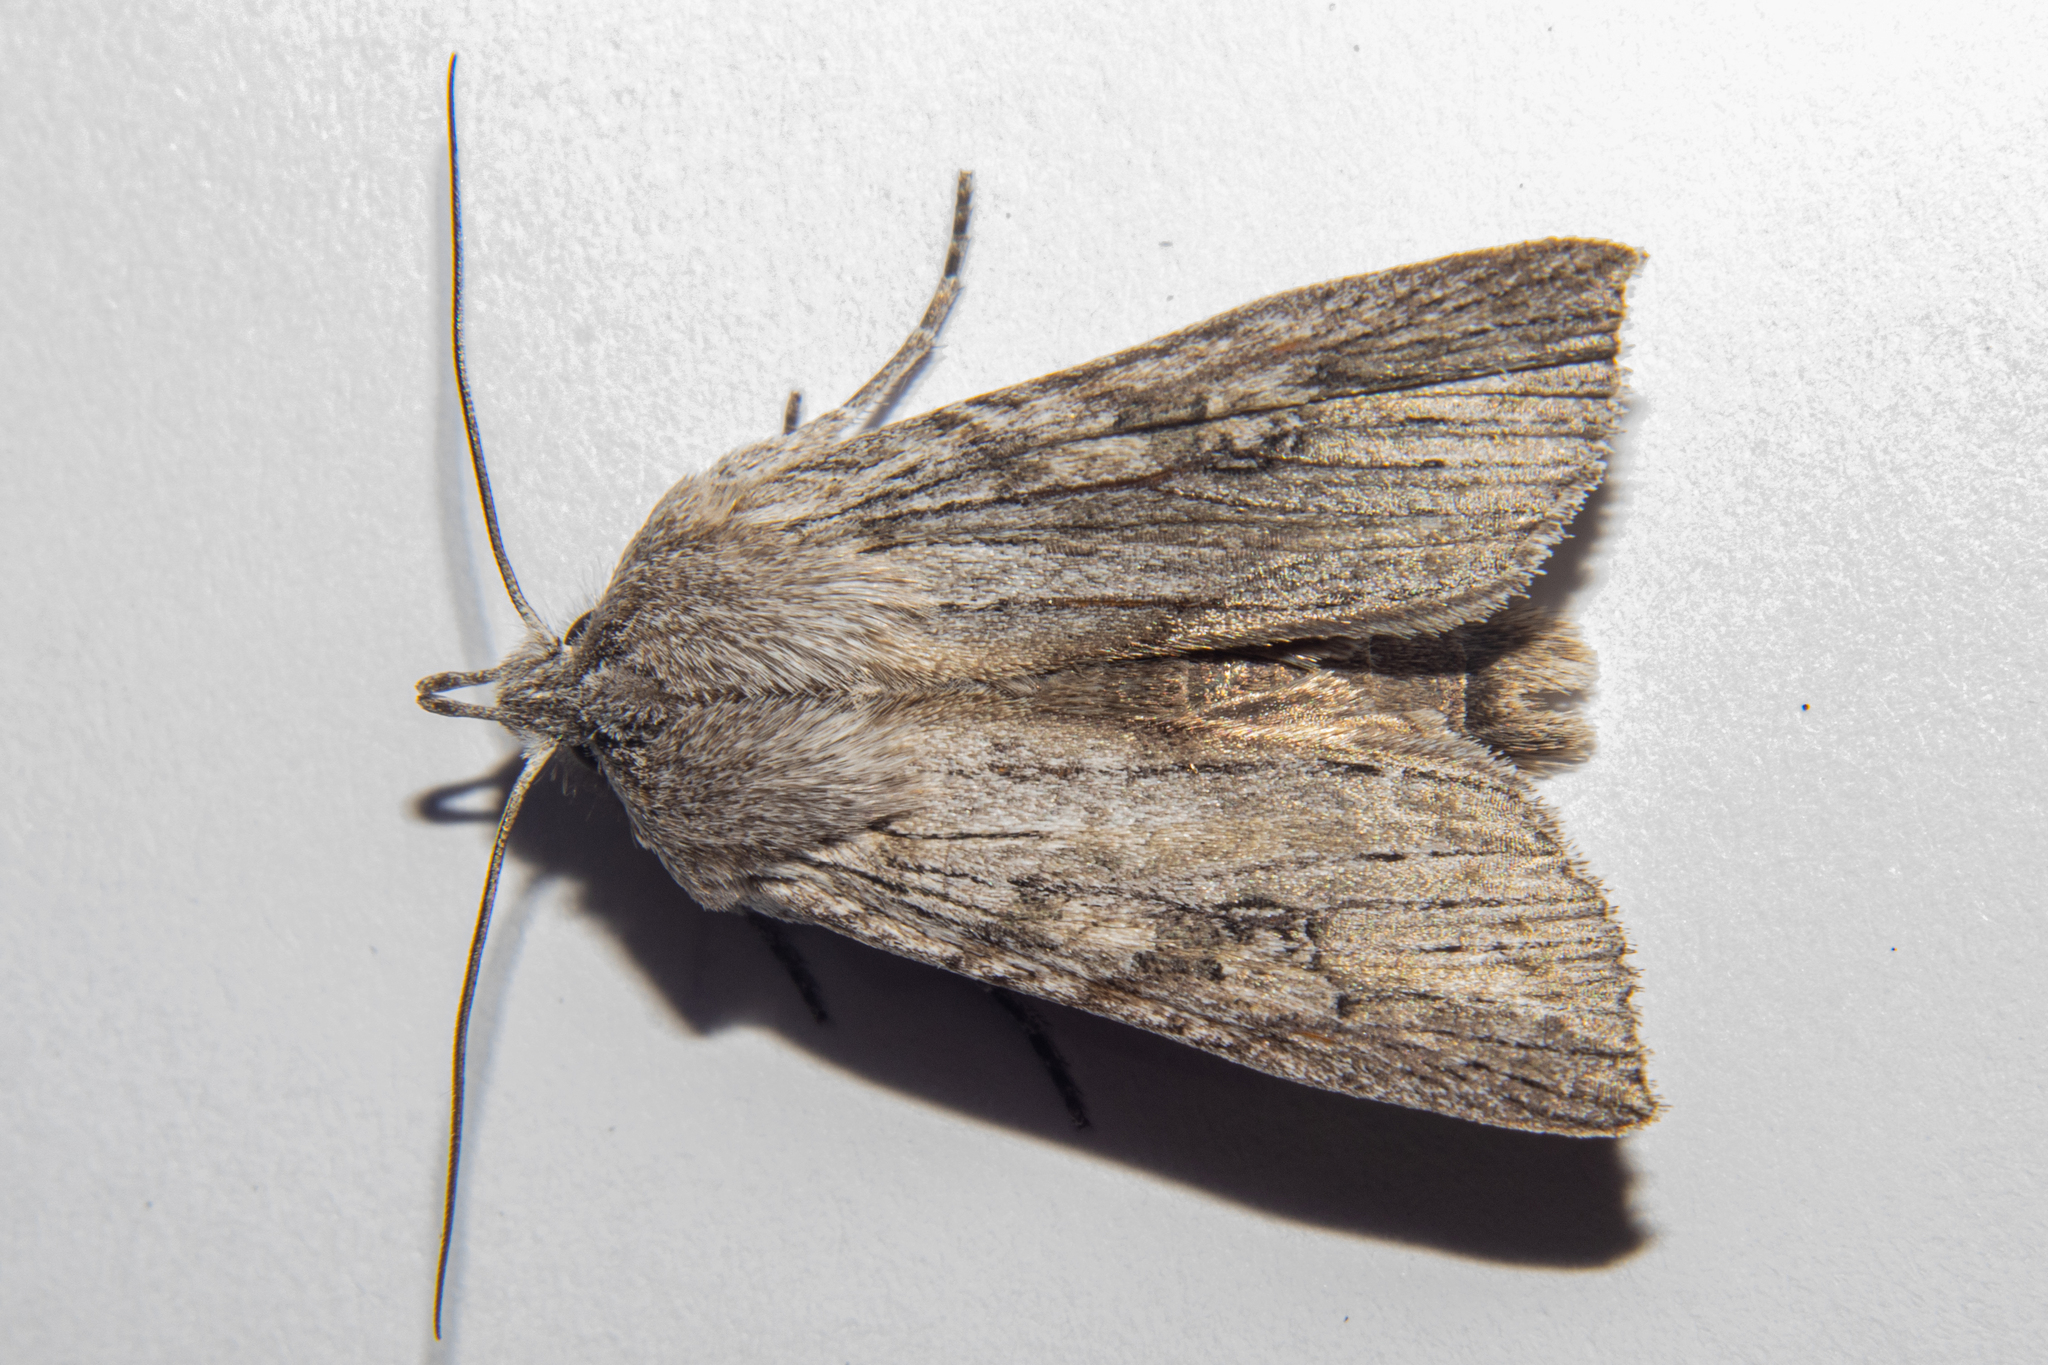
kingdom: Animalia
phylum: Arthropoda
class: Insecta
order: Lepidoptera
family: Noctuidae
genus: Physetica
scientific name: Physetica phricias
